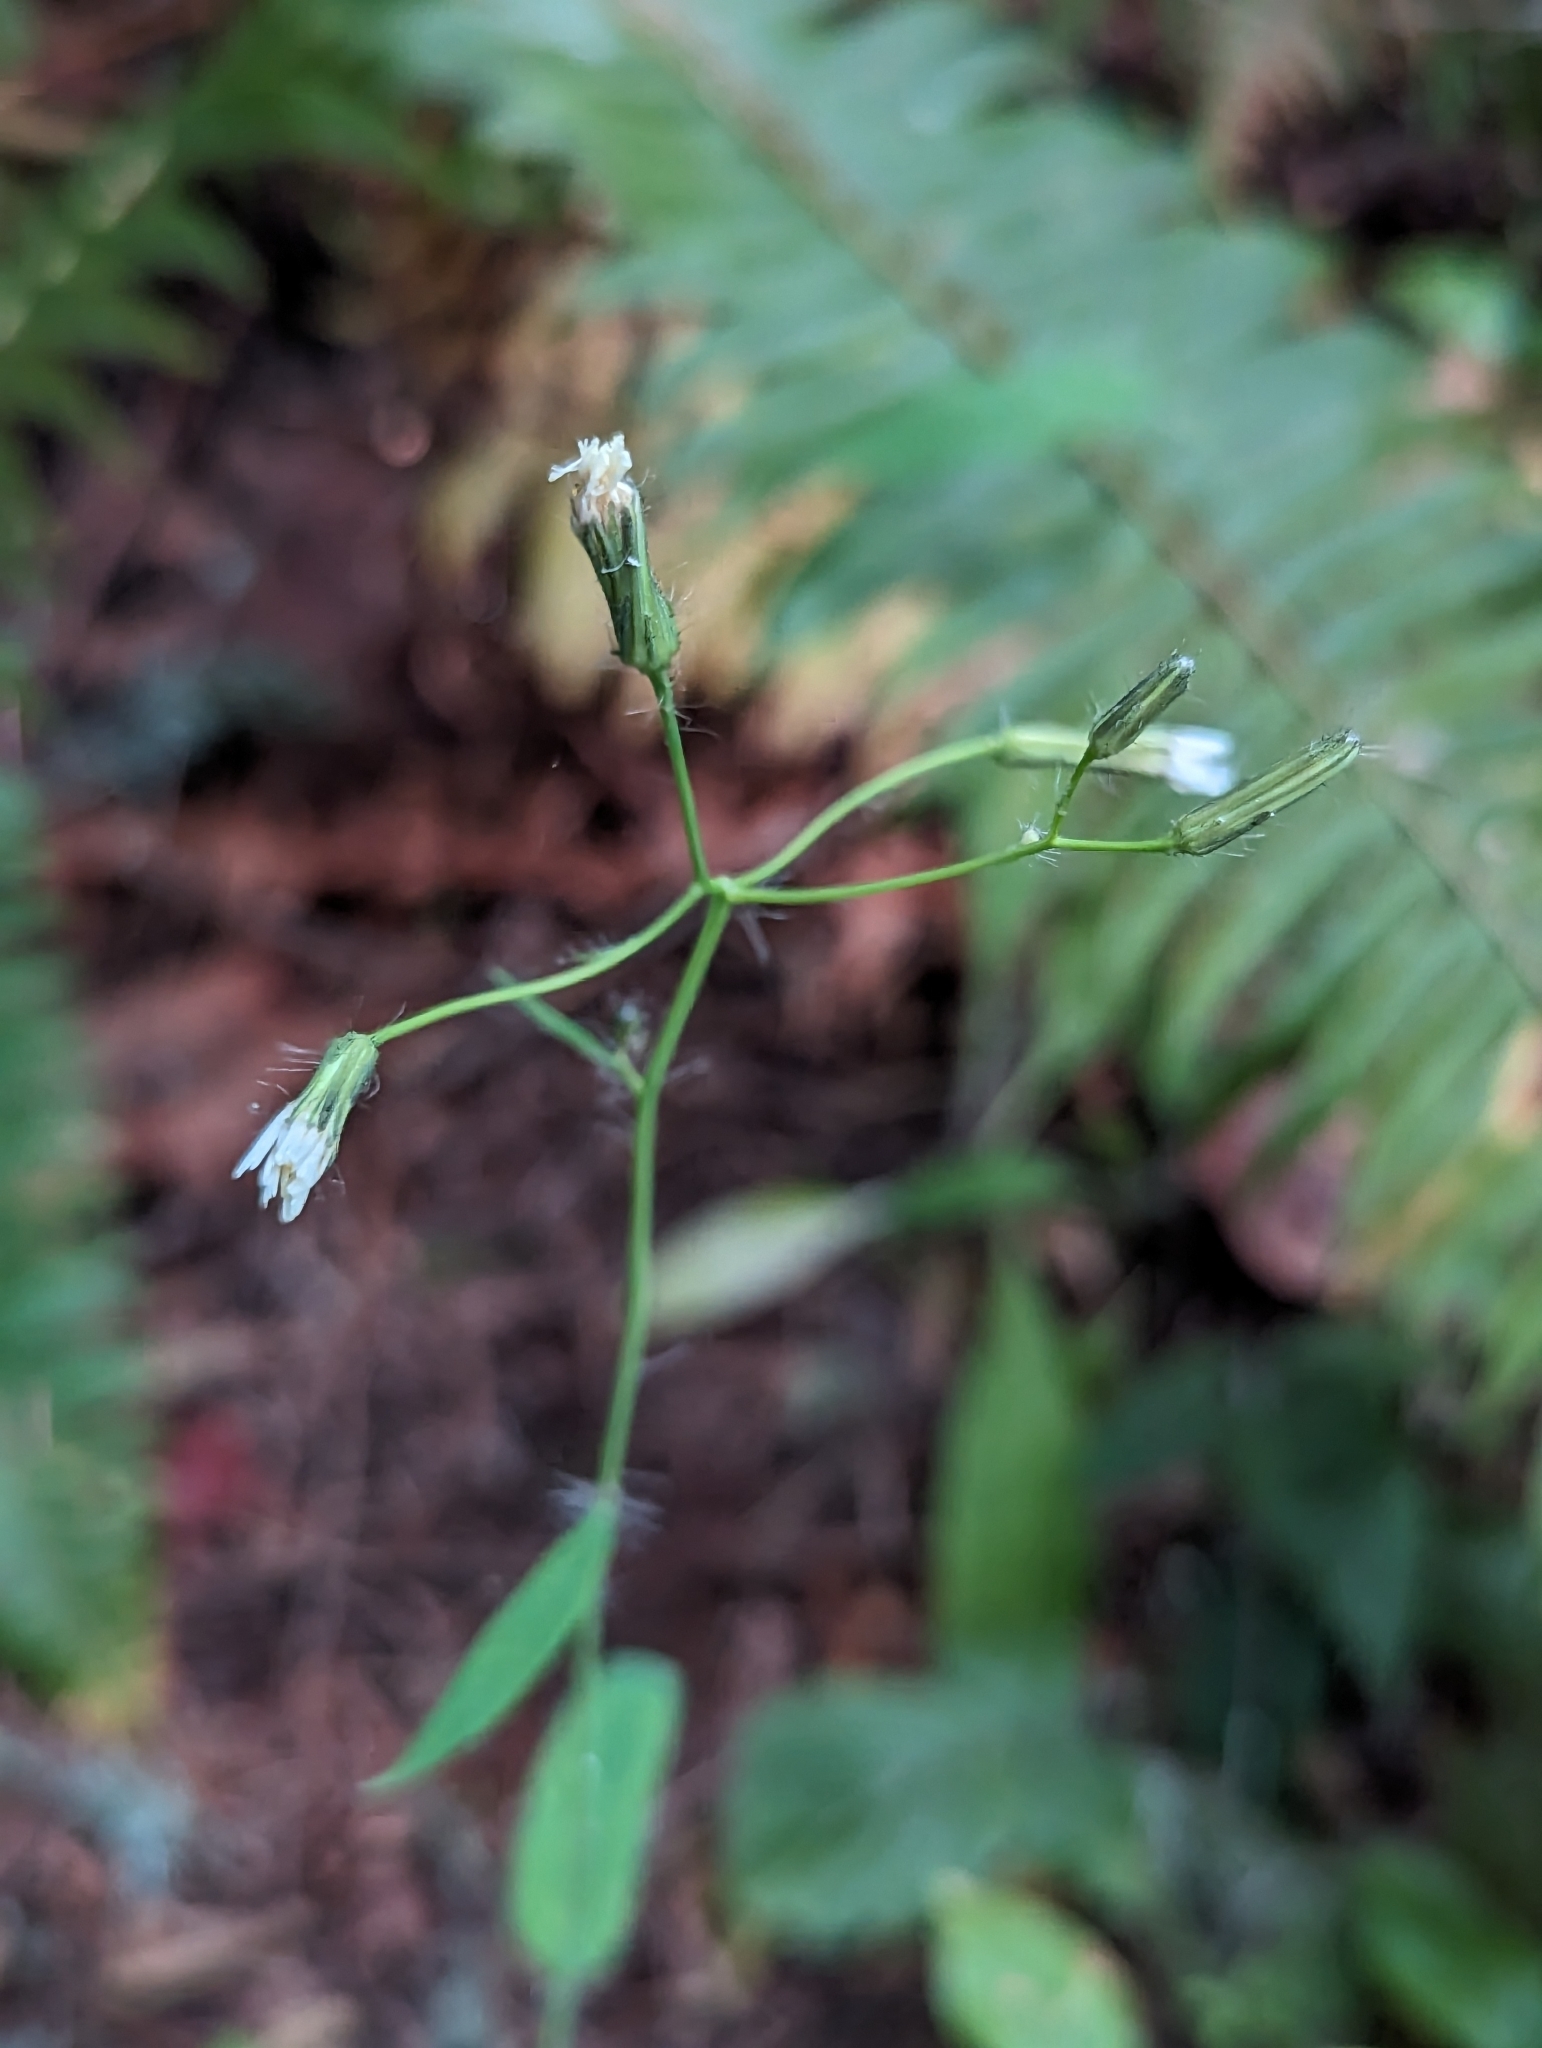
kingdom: Plantae
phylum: Tracheophyta
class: Magnoliopsida
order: Asterales
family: Asteraceae
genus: Hieracium
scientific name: Hieracium albiflorum
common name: White hawkweed
